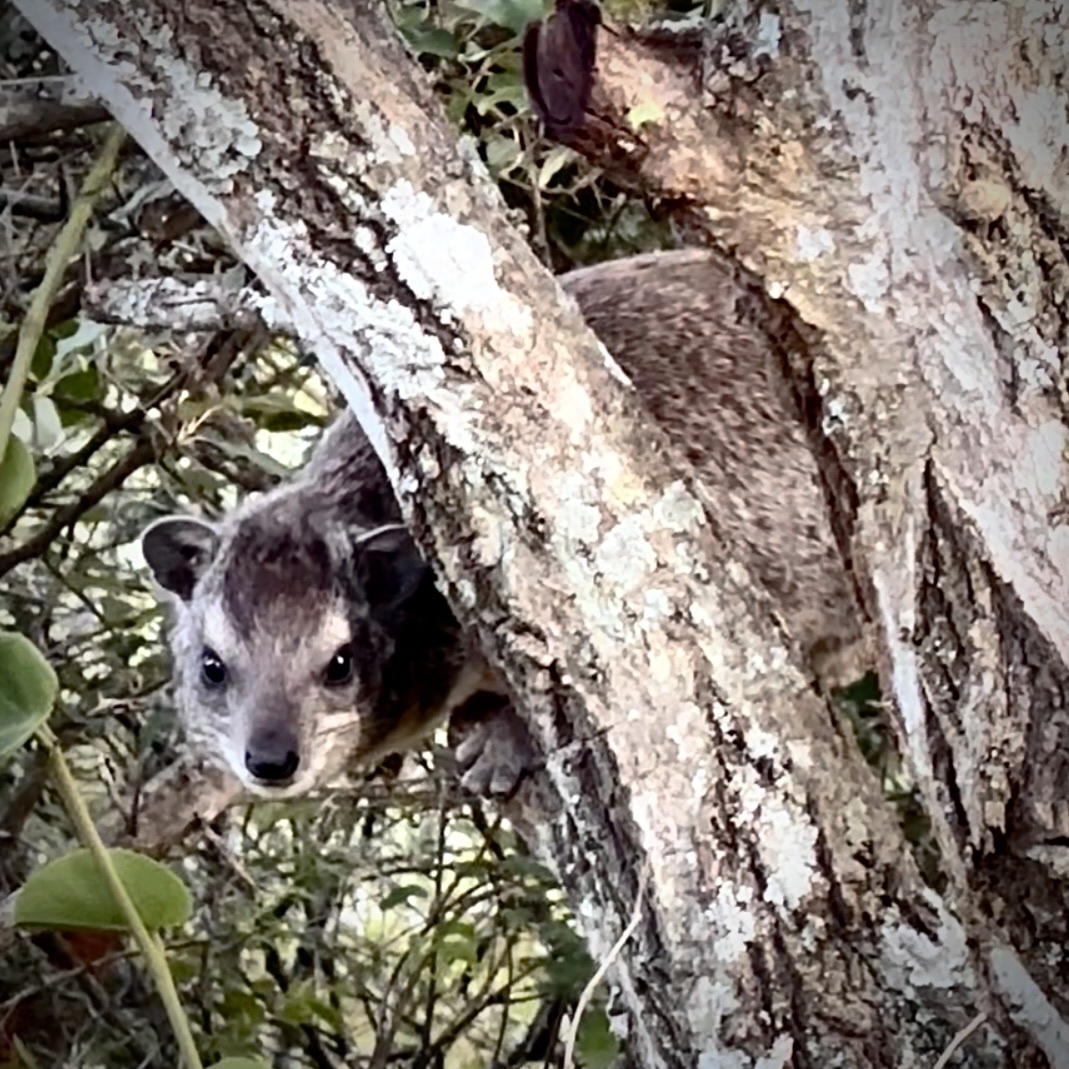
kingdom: Animalia
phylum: Chordata
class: Mammalia
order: Hyracoidea
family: Procaviidae
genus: Heterohyrax
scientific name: Heterohyrax brucei
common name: Bush hyrax
